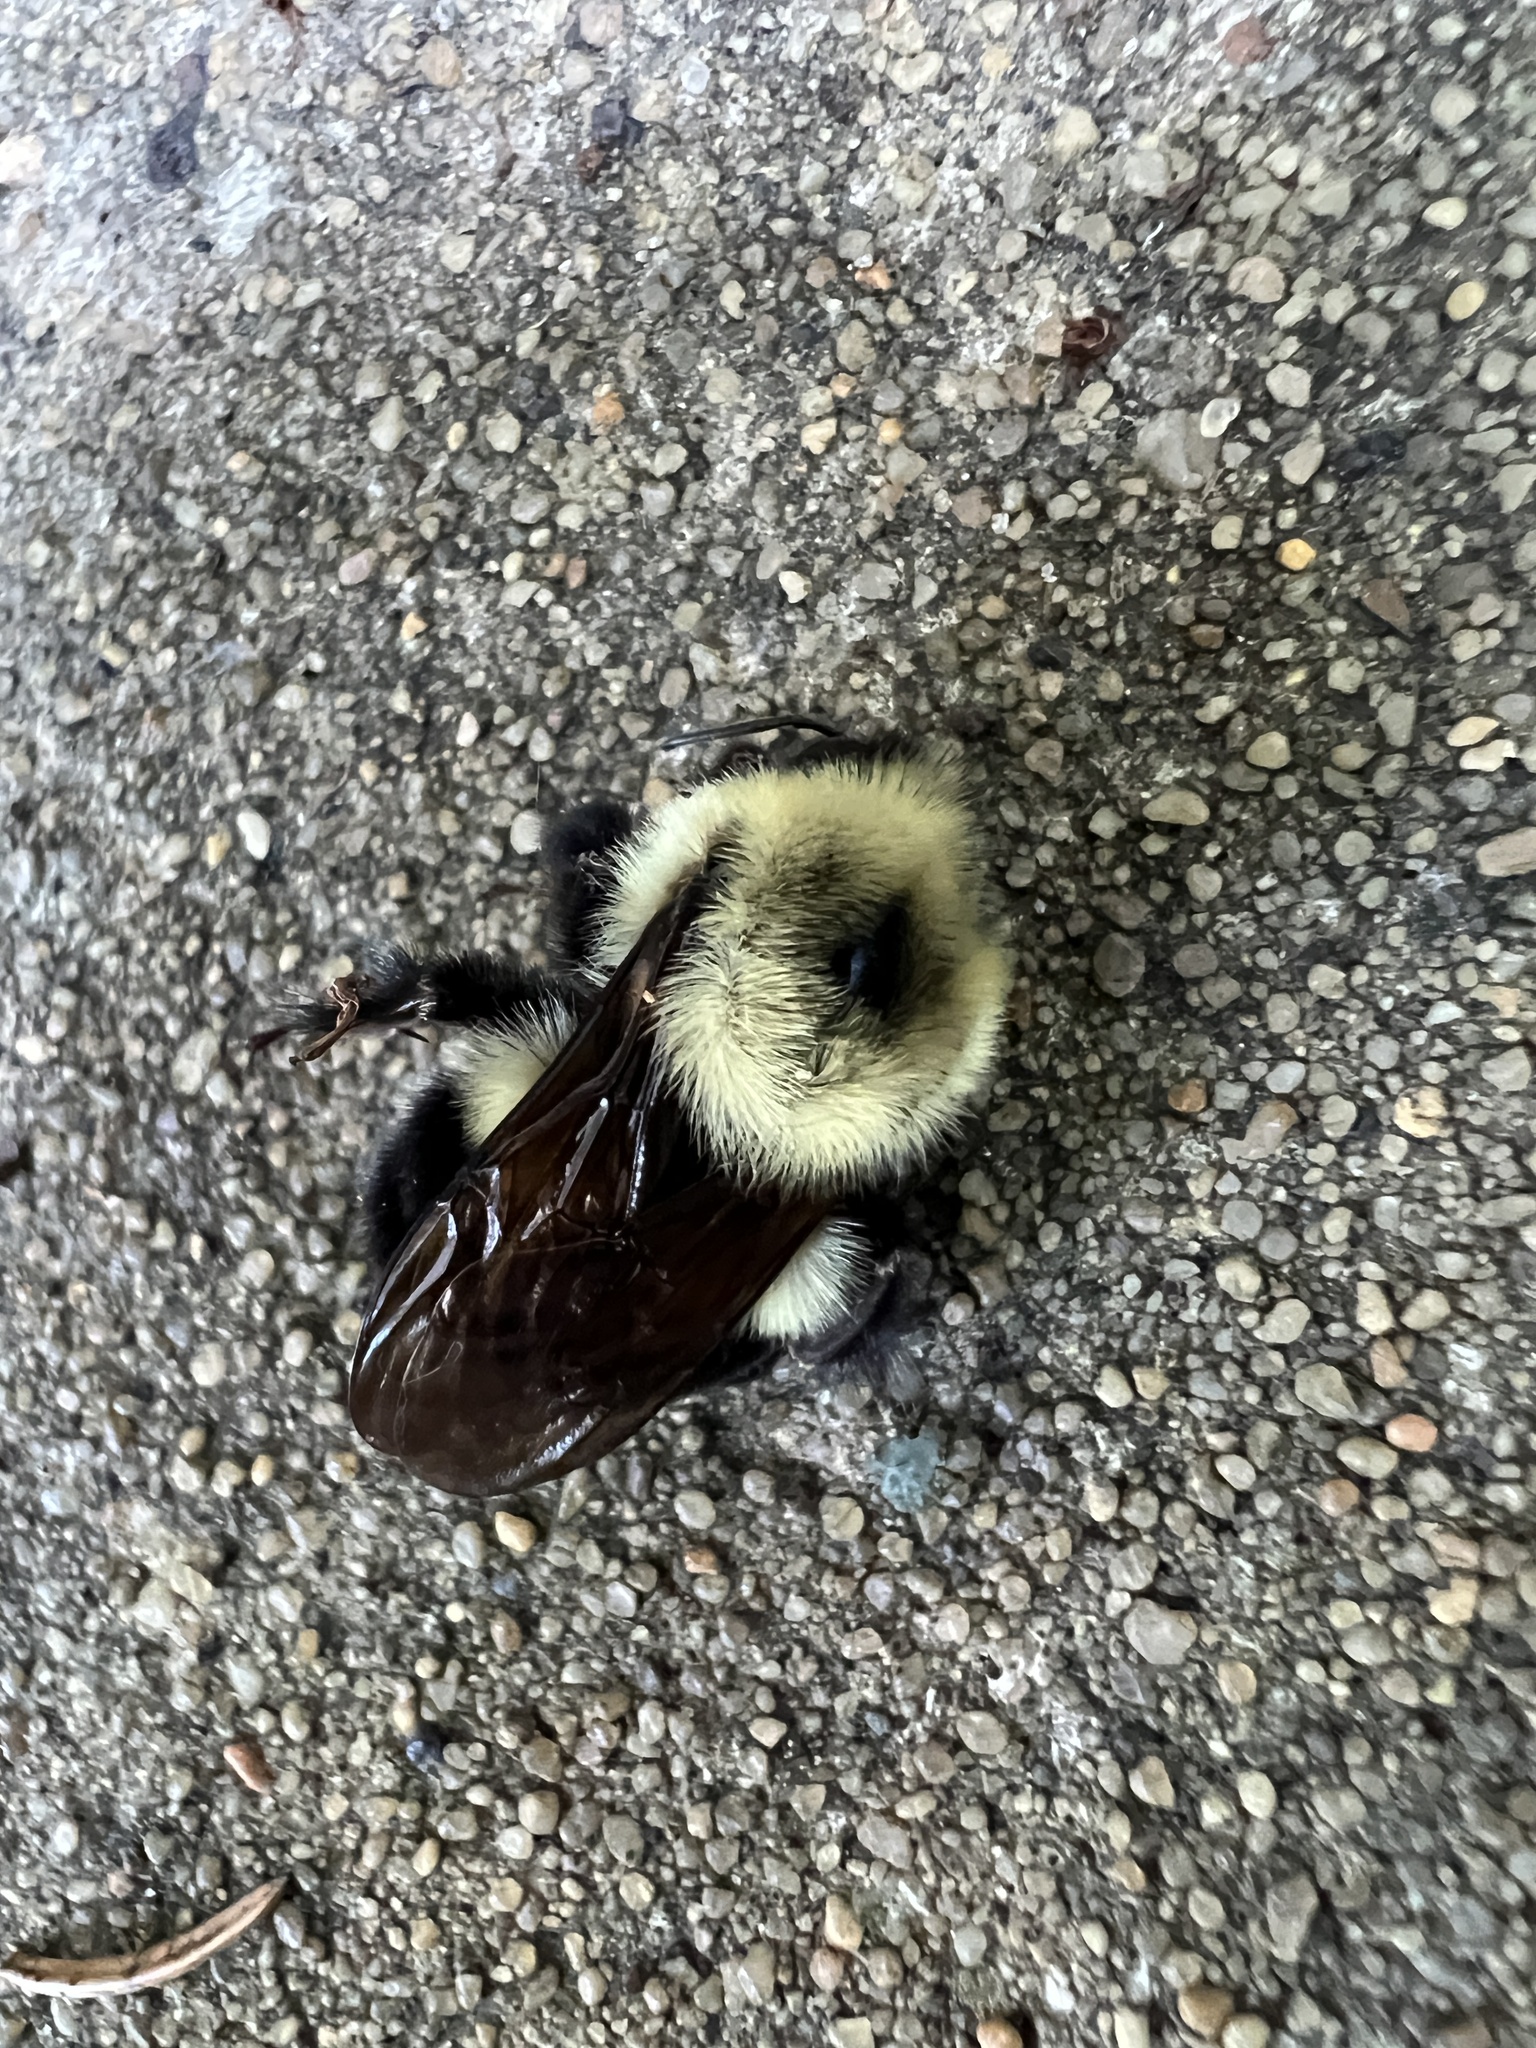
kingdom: Animalia
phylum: Arthropoda
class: Insecta
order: Hymenoptera
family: Apidae
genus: Bombus
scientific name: Bombus bimaculatus
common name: Two-spotted bumble bee
